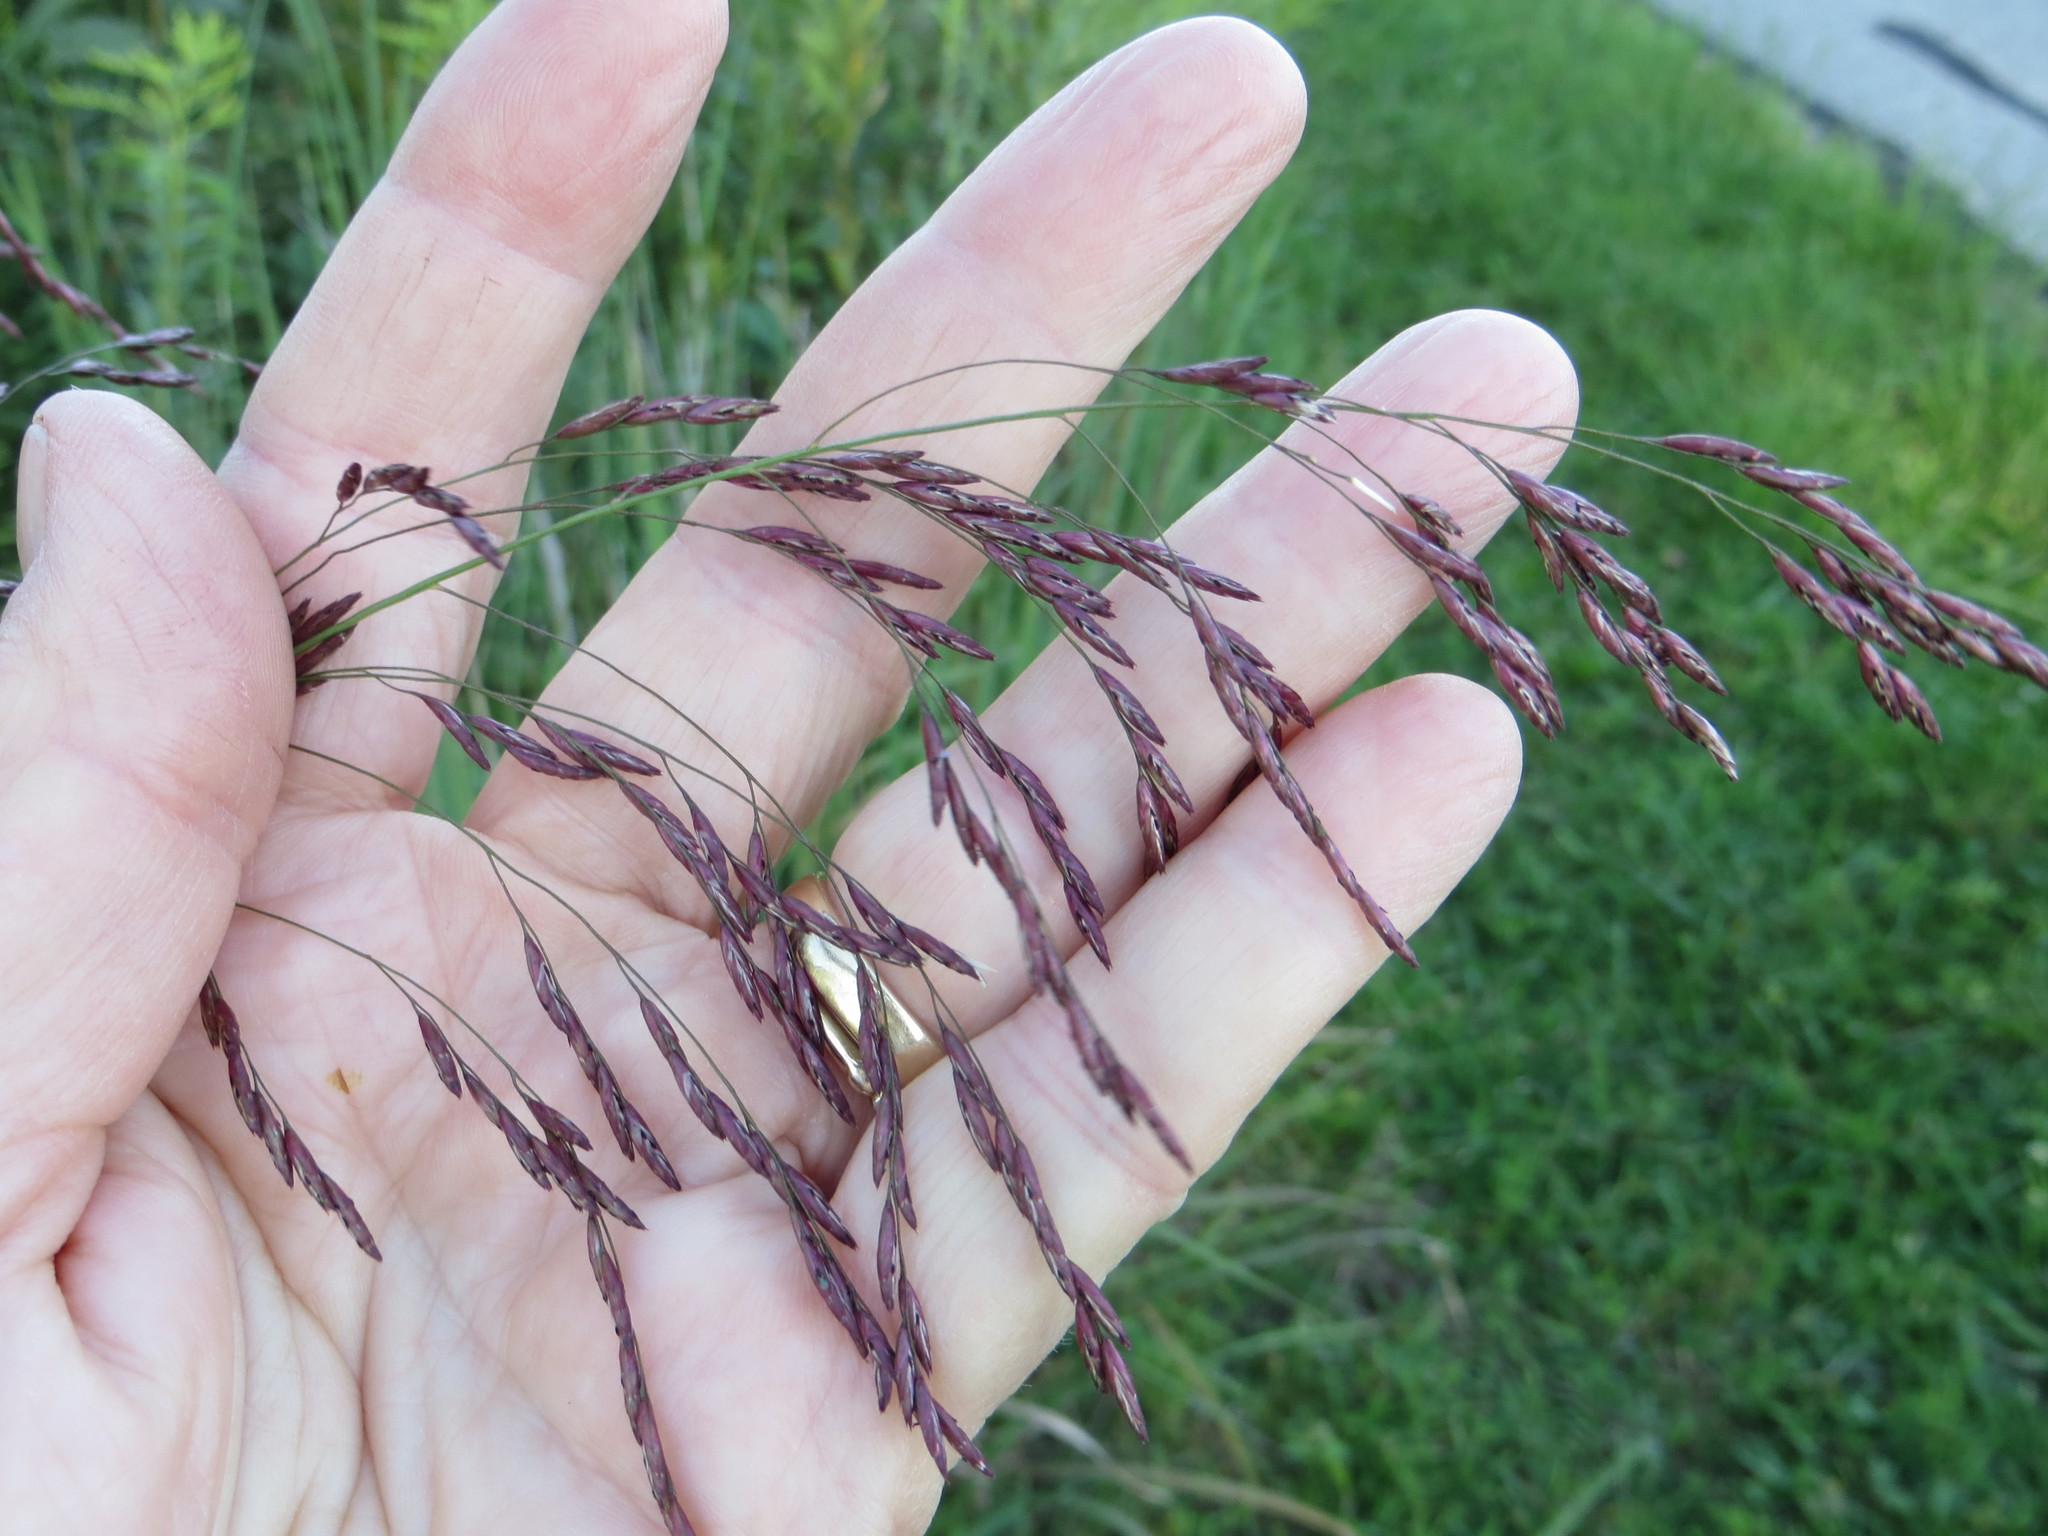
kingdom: Plantae
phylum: Tracheophyta
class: Liliopsida
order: Poales
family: Poaceae
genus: Tridens
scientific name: Tridens flavus
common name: Purpletop
